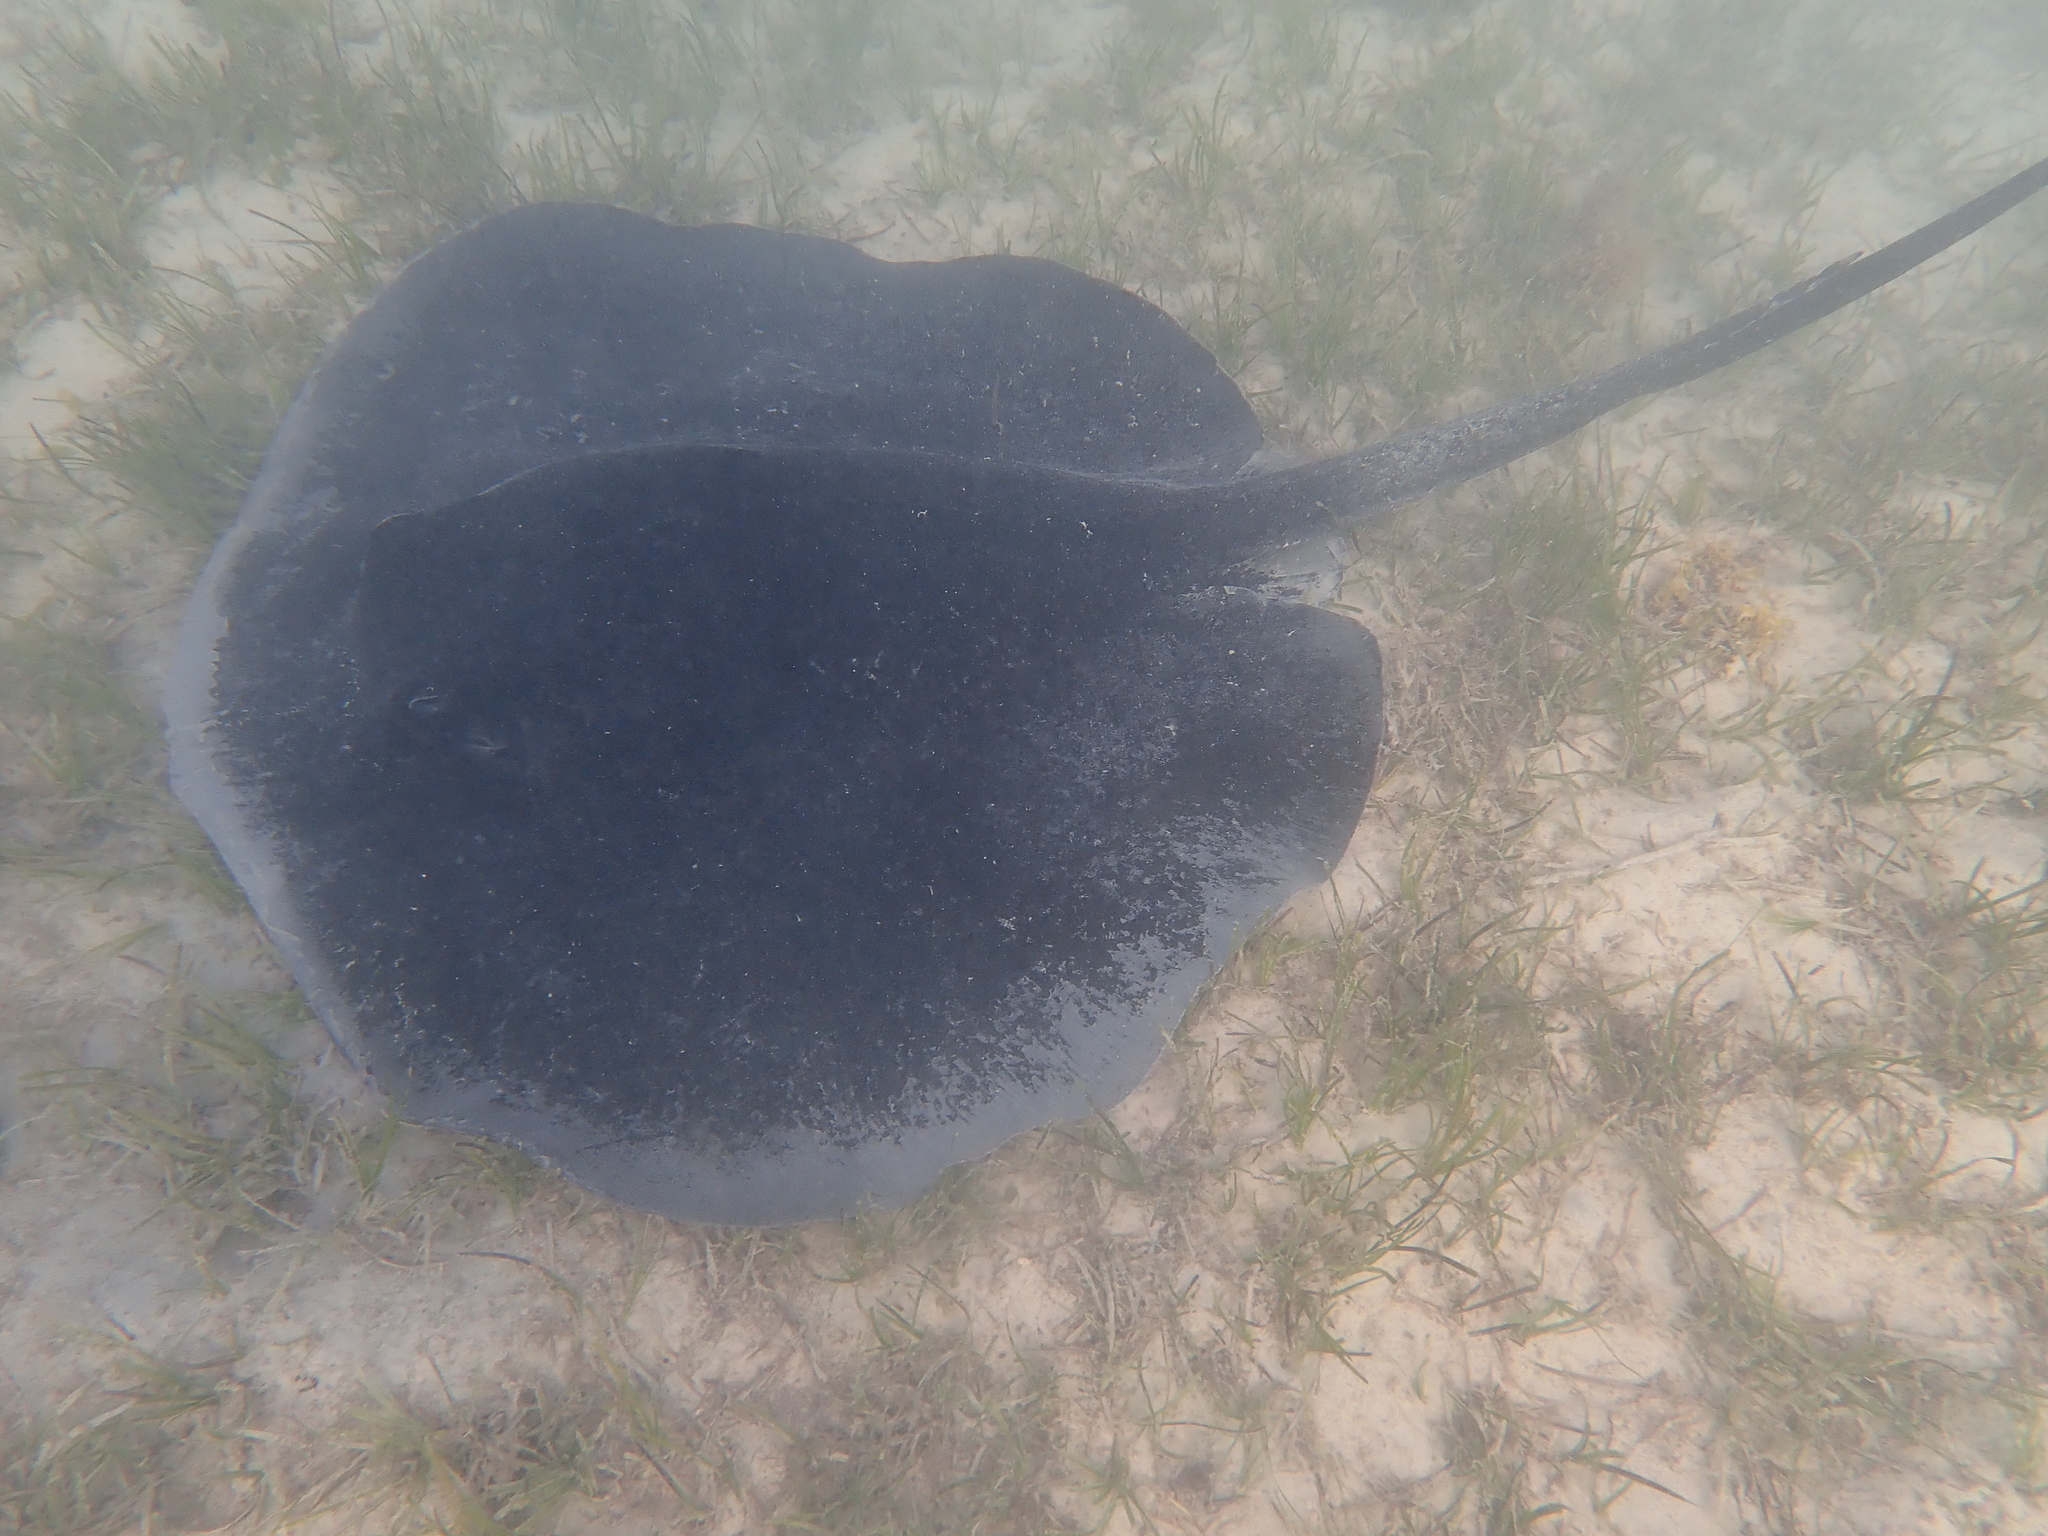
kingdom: Animalia
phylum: Chordata
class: Elasmobranchii
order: Myliobatiformes
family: Dasyatidae
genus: Taeniurops
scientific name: Taeniurops meyeni
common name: Black-blotched stingray
